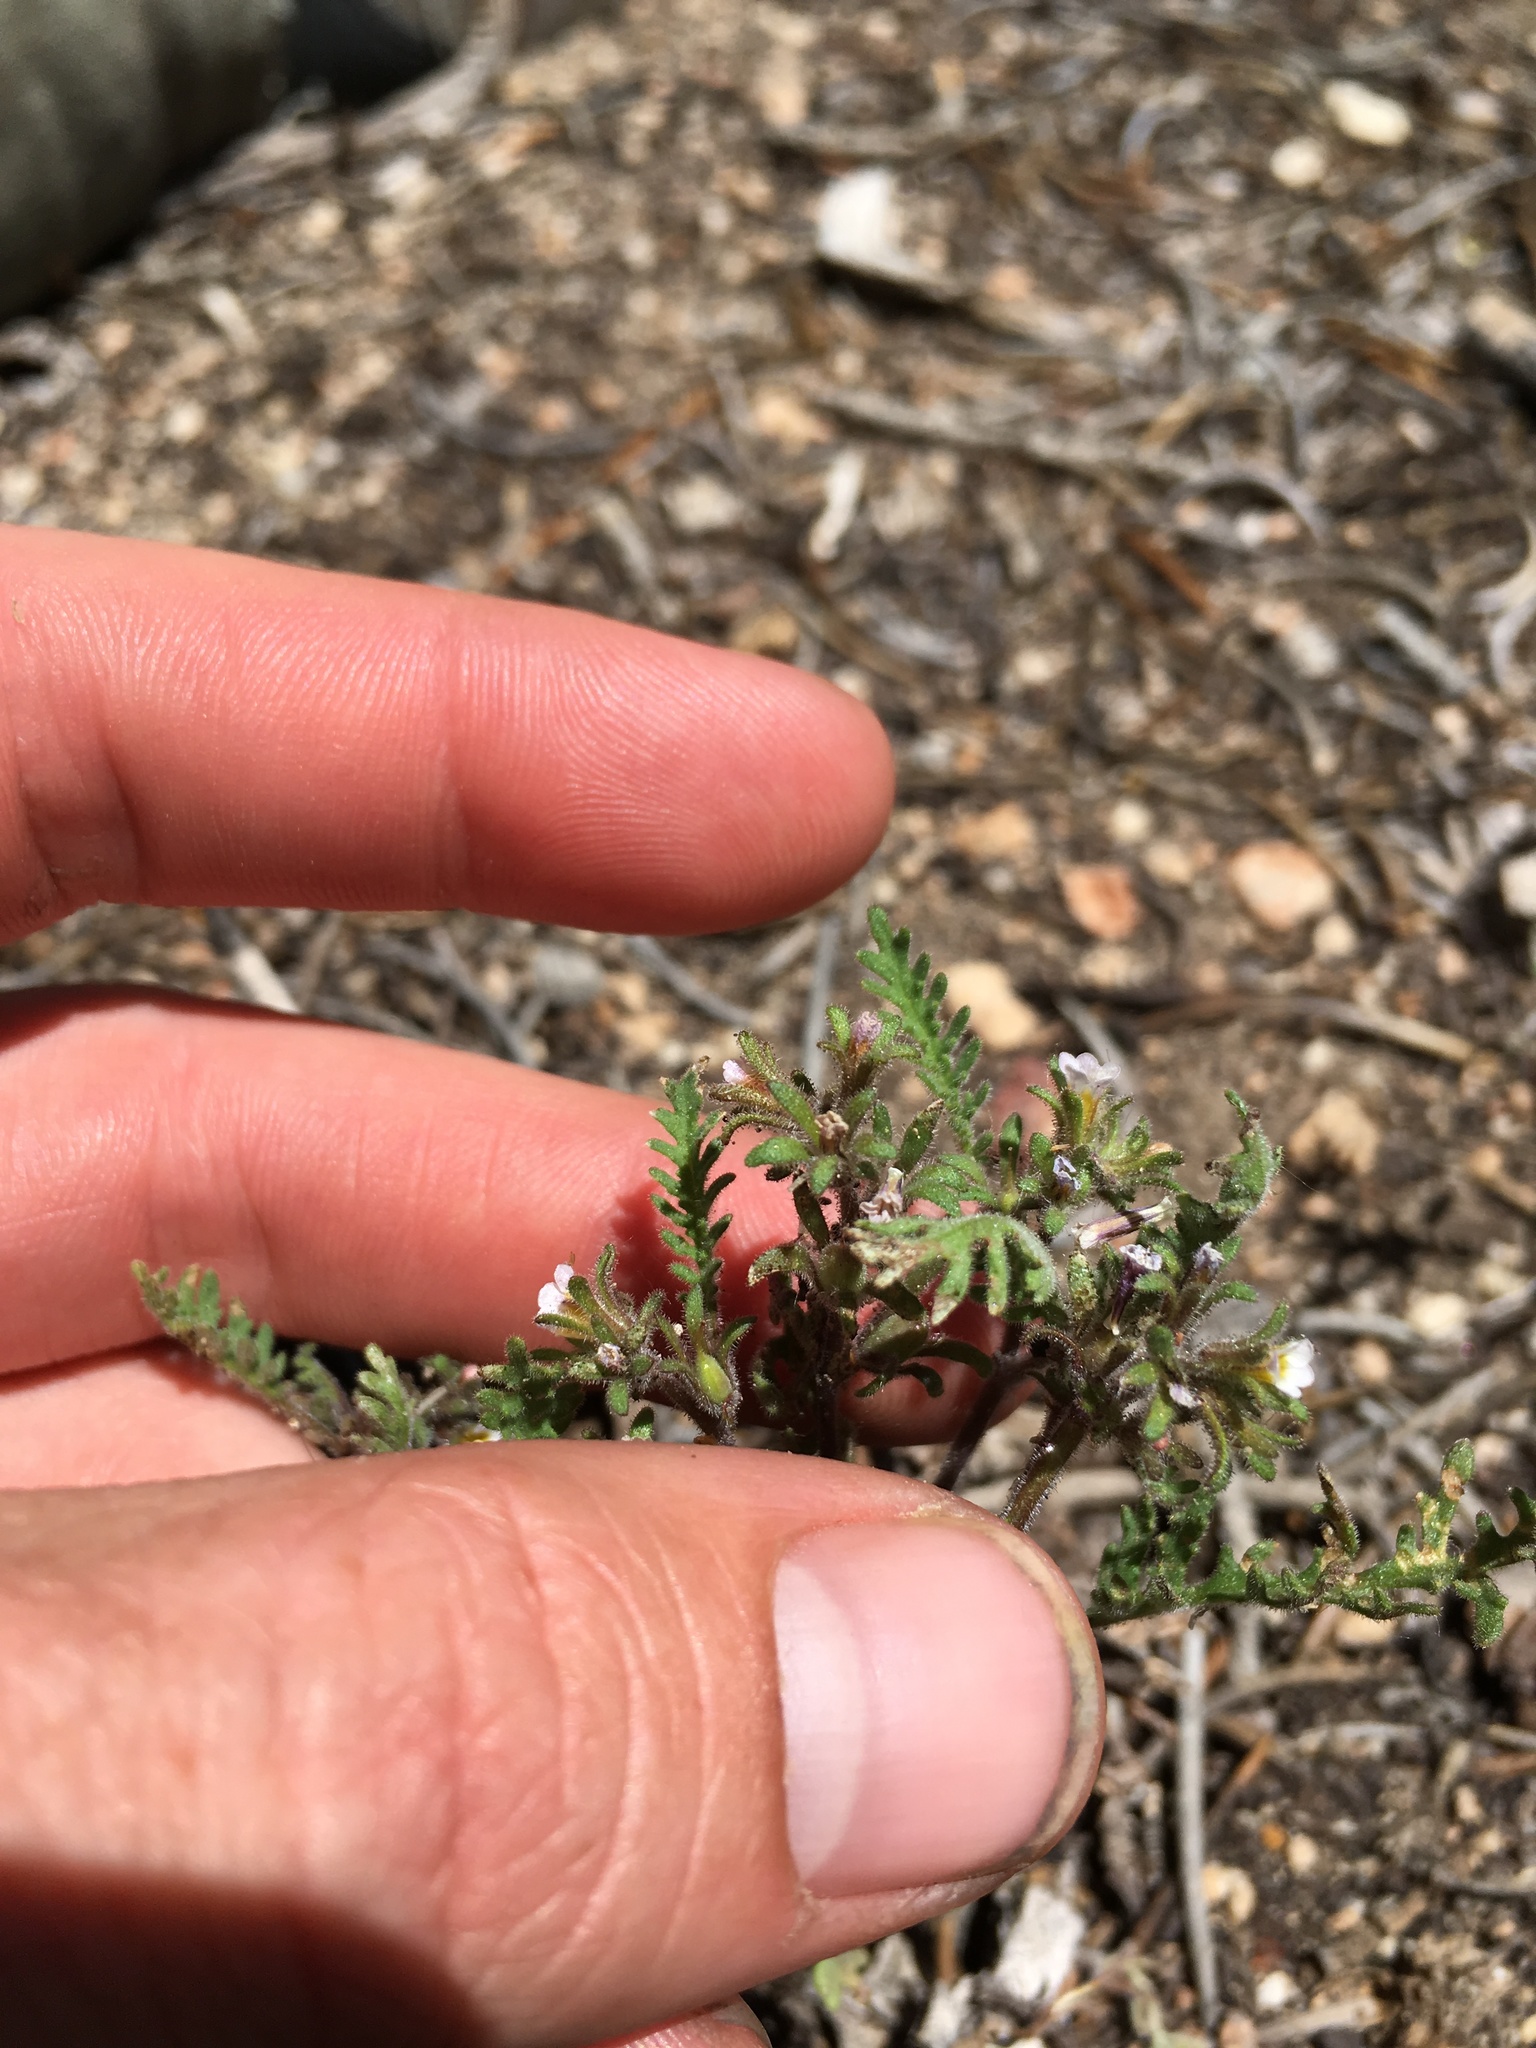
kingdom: Plantae
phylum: Tracheophyta
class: Magnoliopsida
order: Boraginales
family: Hydrophyllaceae
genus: Phacelia
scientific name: Phacelia glandulifera
